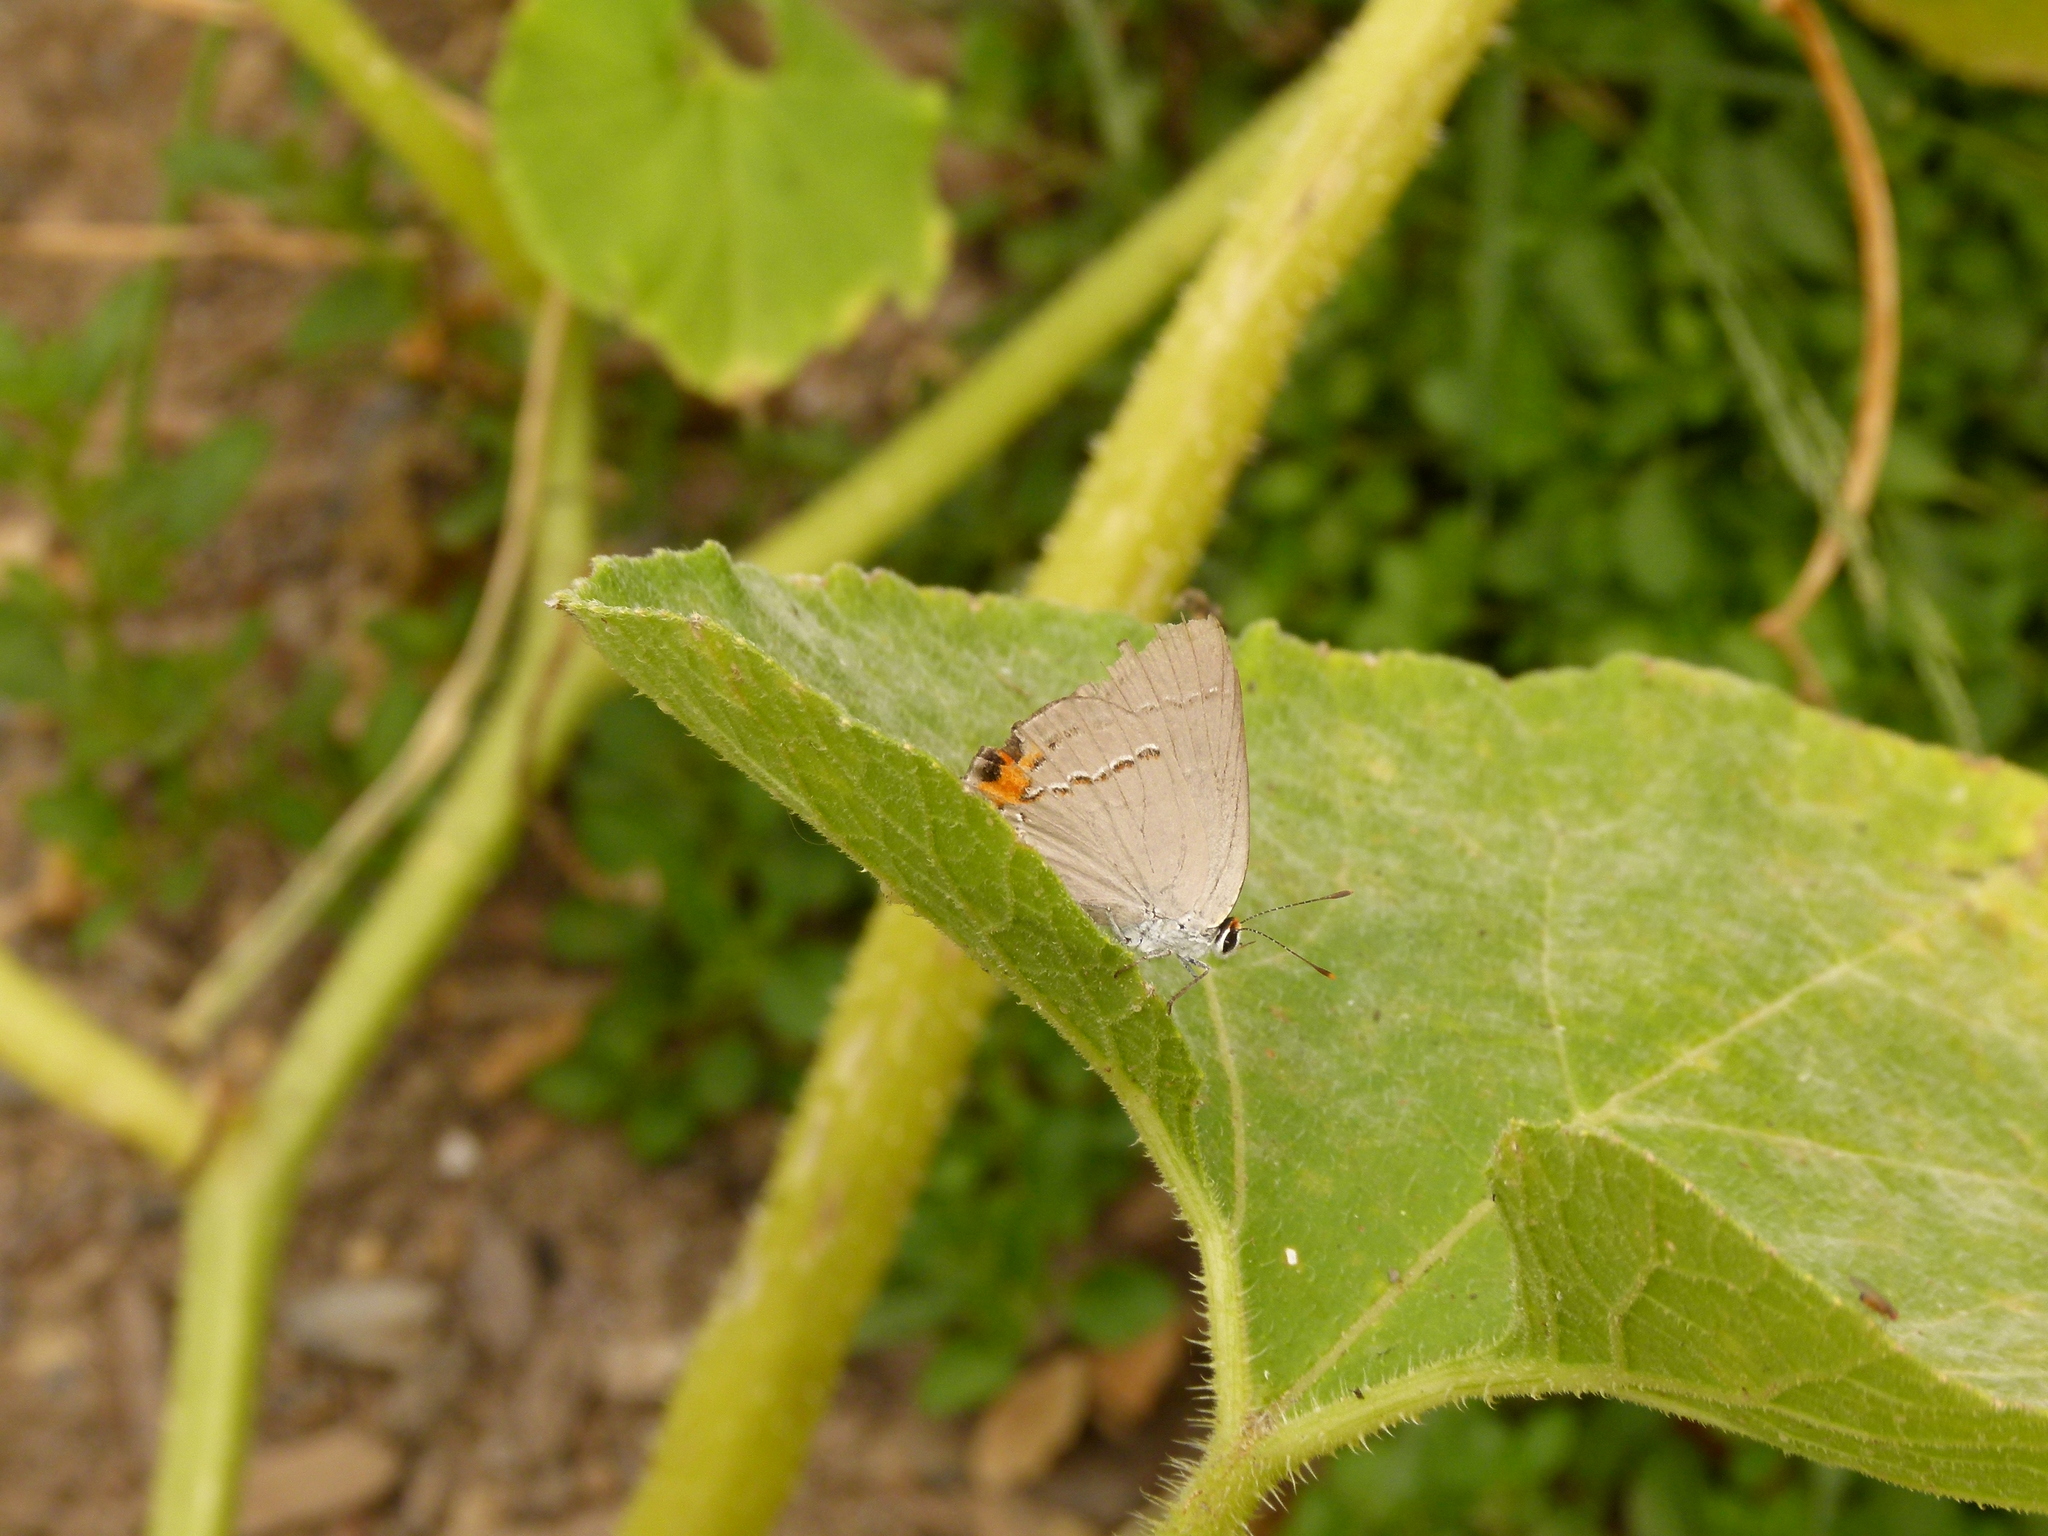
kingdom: Animalia
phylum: Arthropoda
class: Insecta
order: Lepidoptera
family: Lycaenidae
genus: Strymon
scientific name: Strymon melinus
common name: Gray hairstreak
